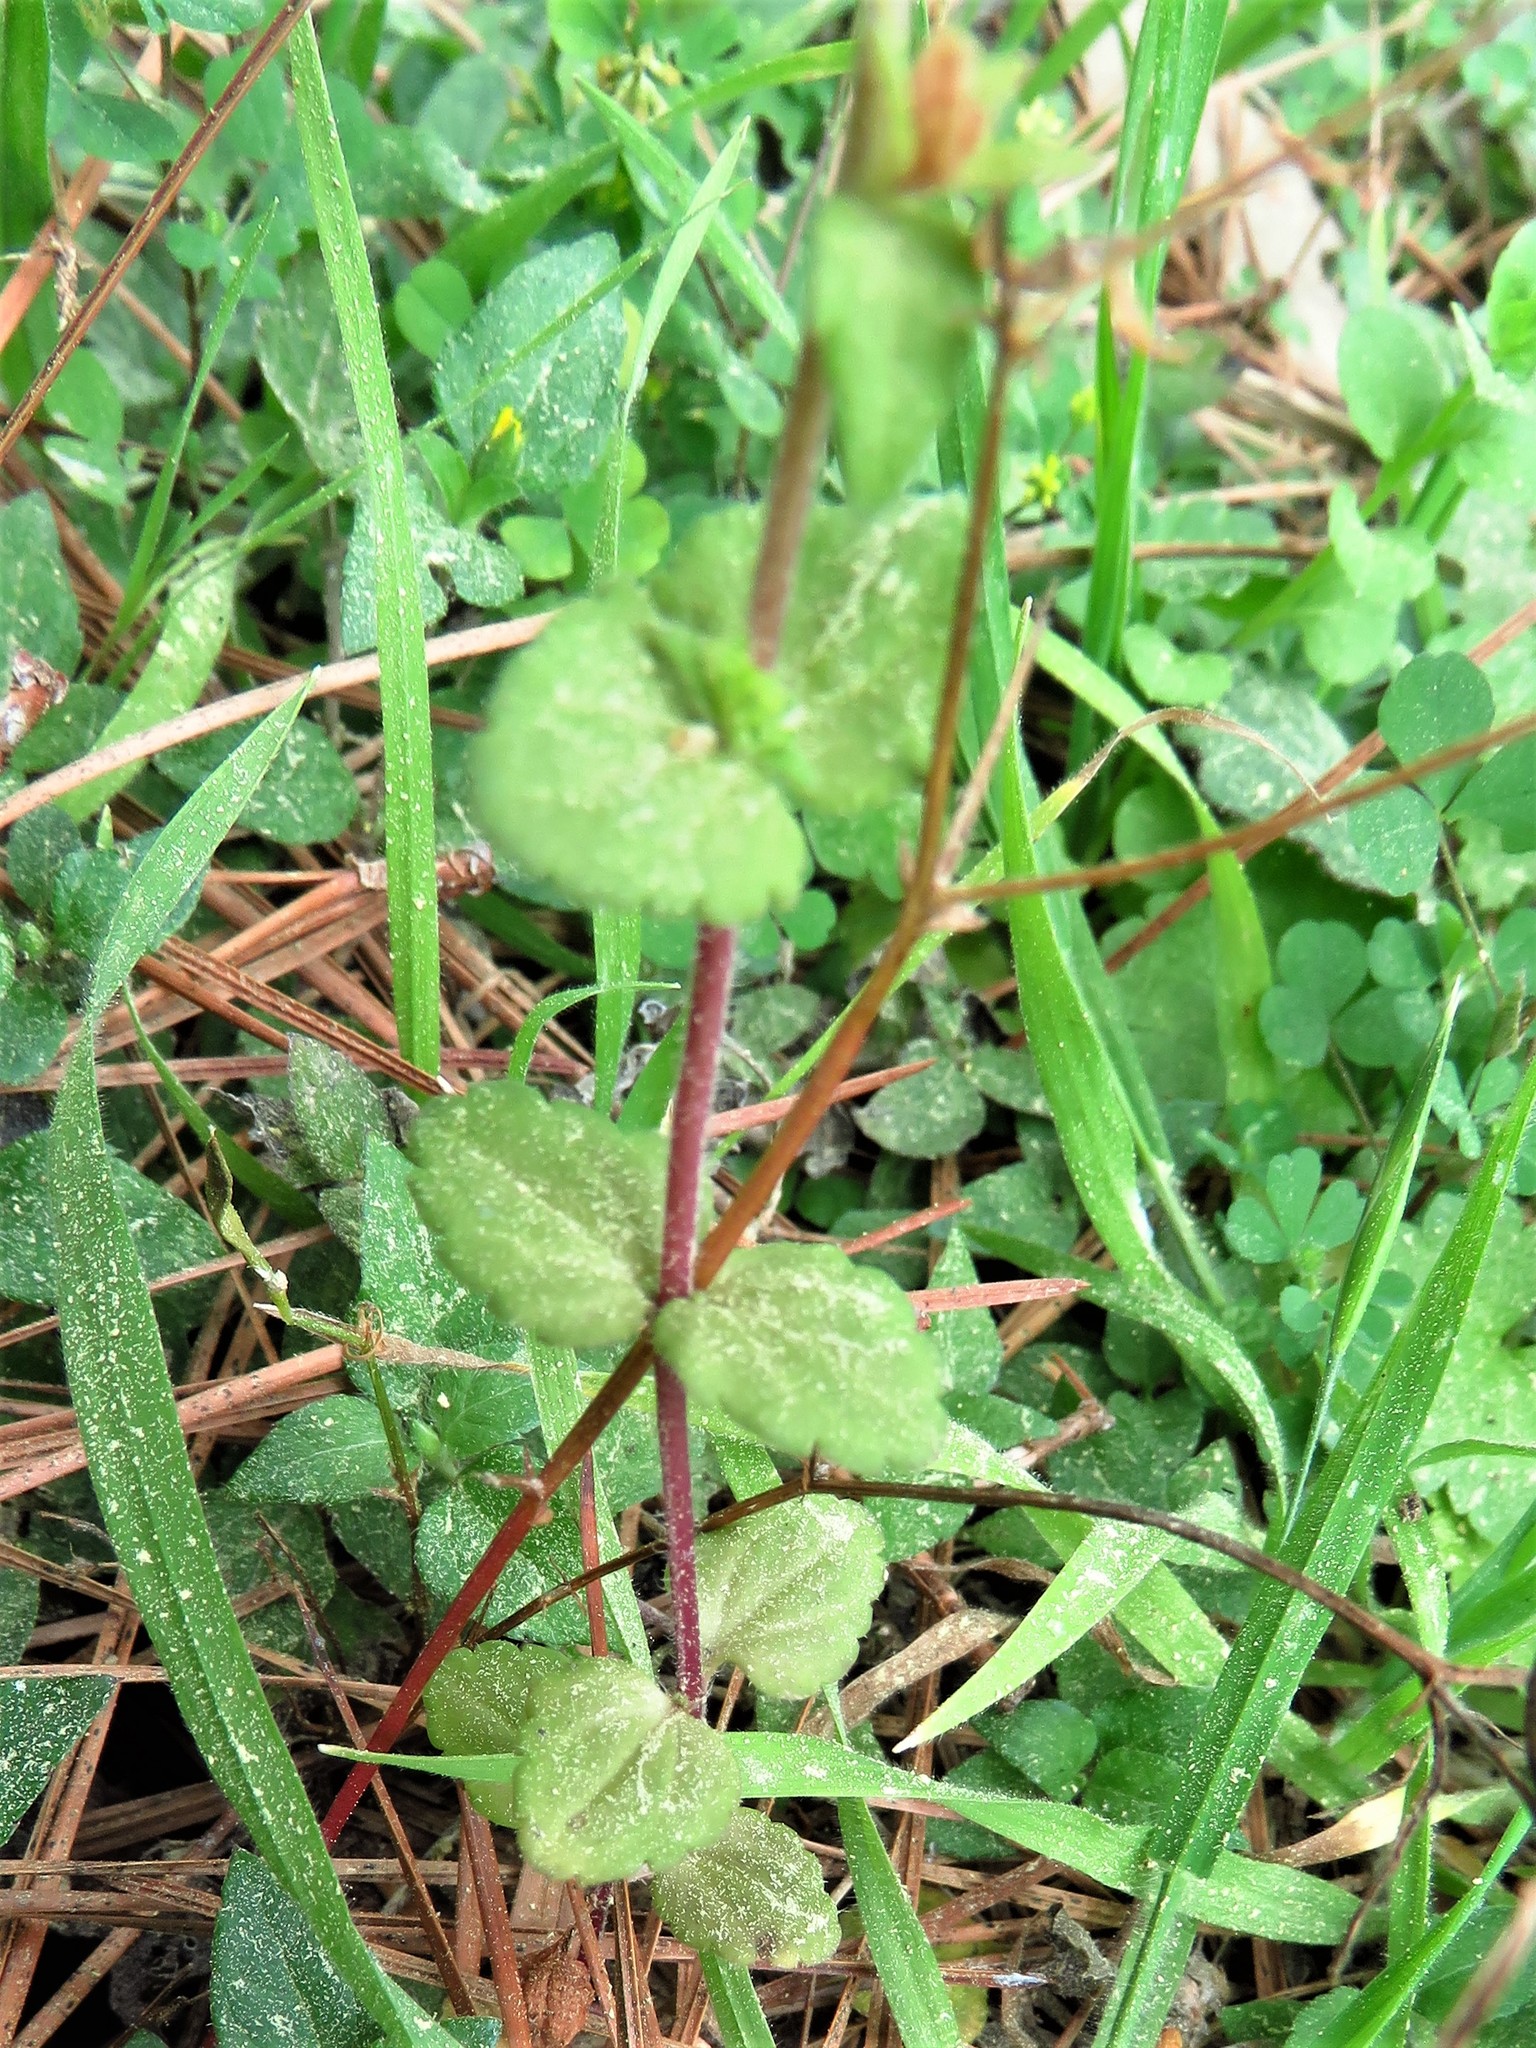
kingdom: Plantae
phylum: Tracheophyta
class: Magnoliopsida
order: Lamiales
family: Plantaginaceae
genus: Veronica
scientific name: Veronica arvensis
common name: Corn speedwell
